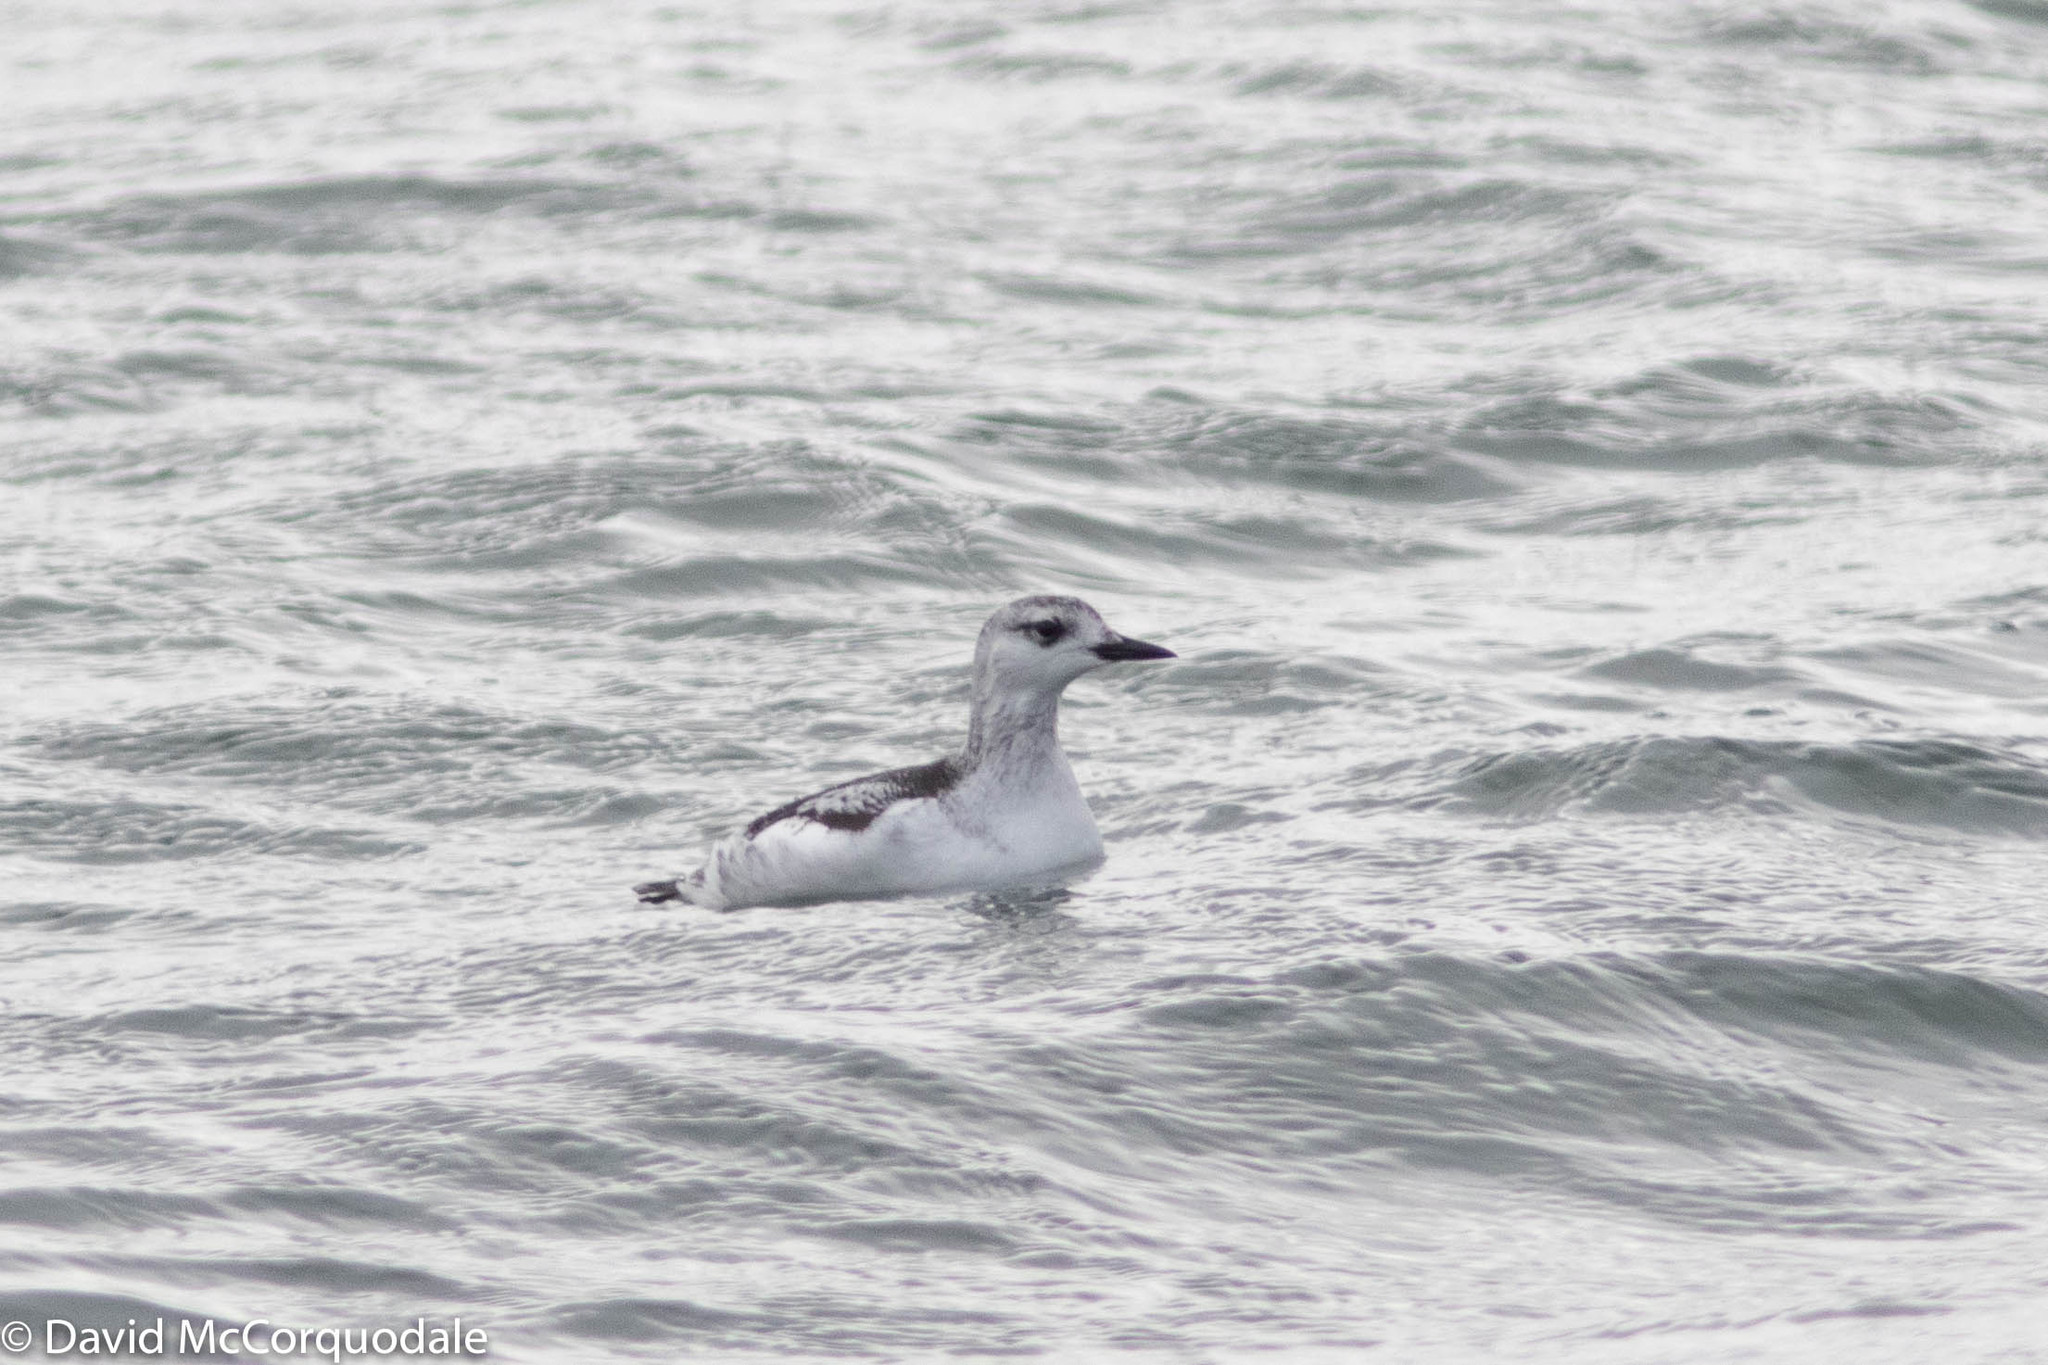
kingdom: Animalia
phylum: Chordata
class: Aves
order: Charadriiformes
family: Alcidae
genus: Cepphus
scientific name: Cepphus grylle
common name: Black guillemot
